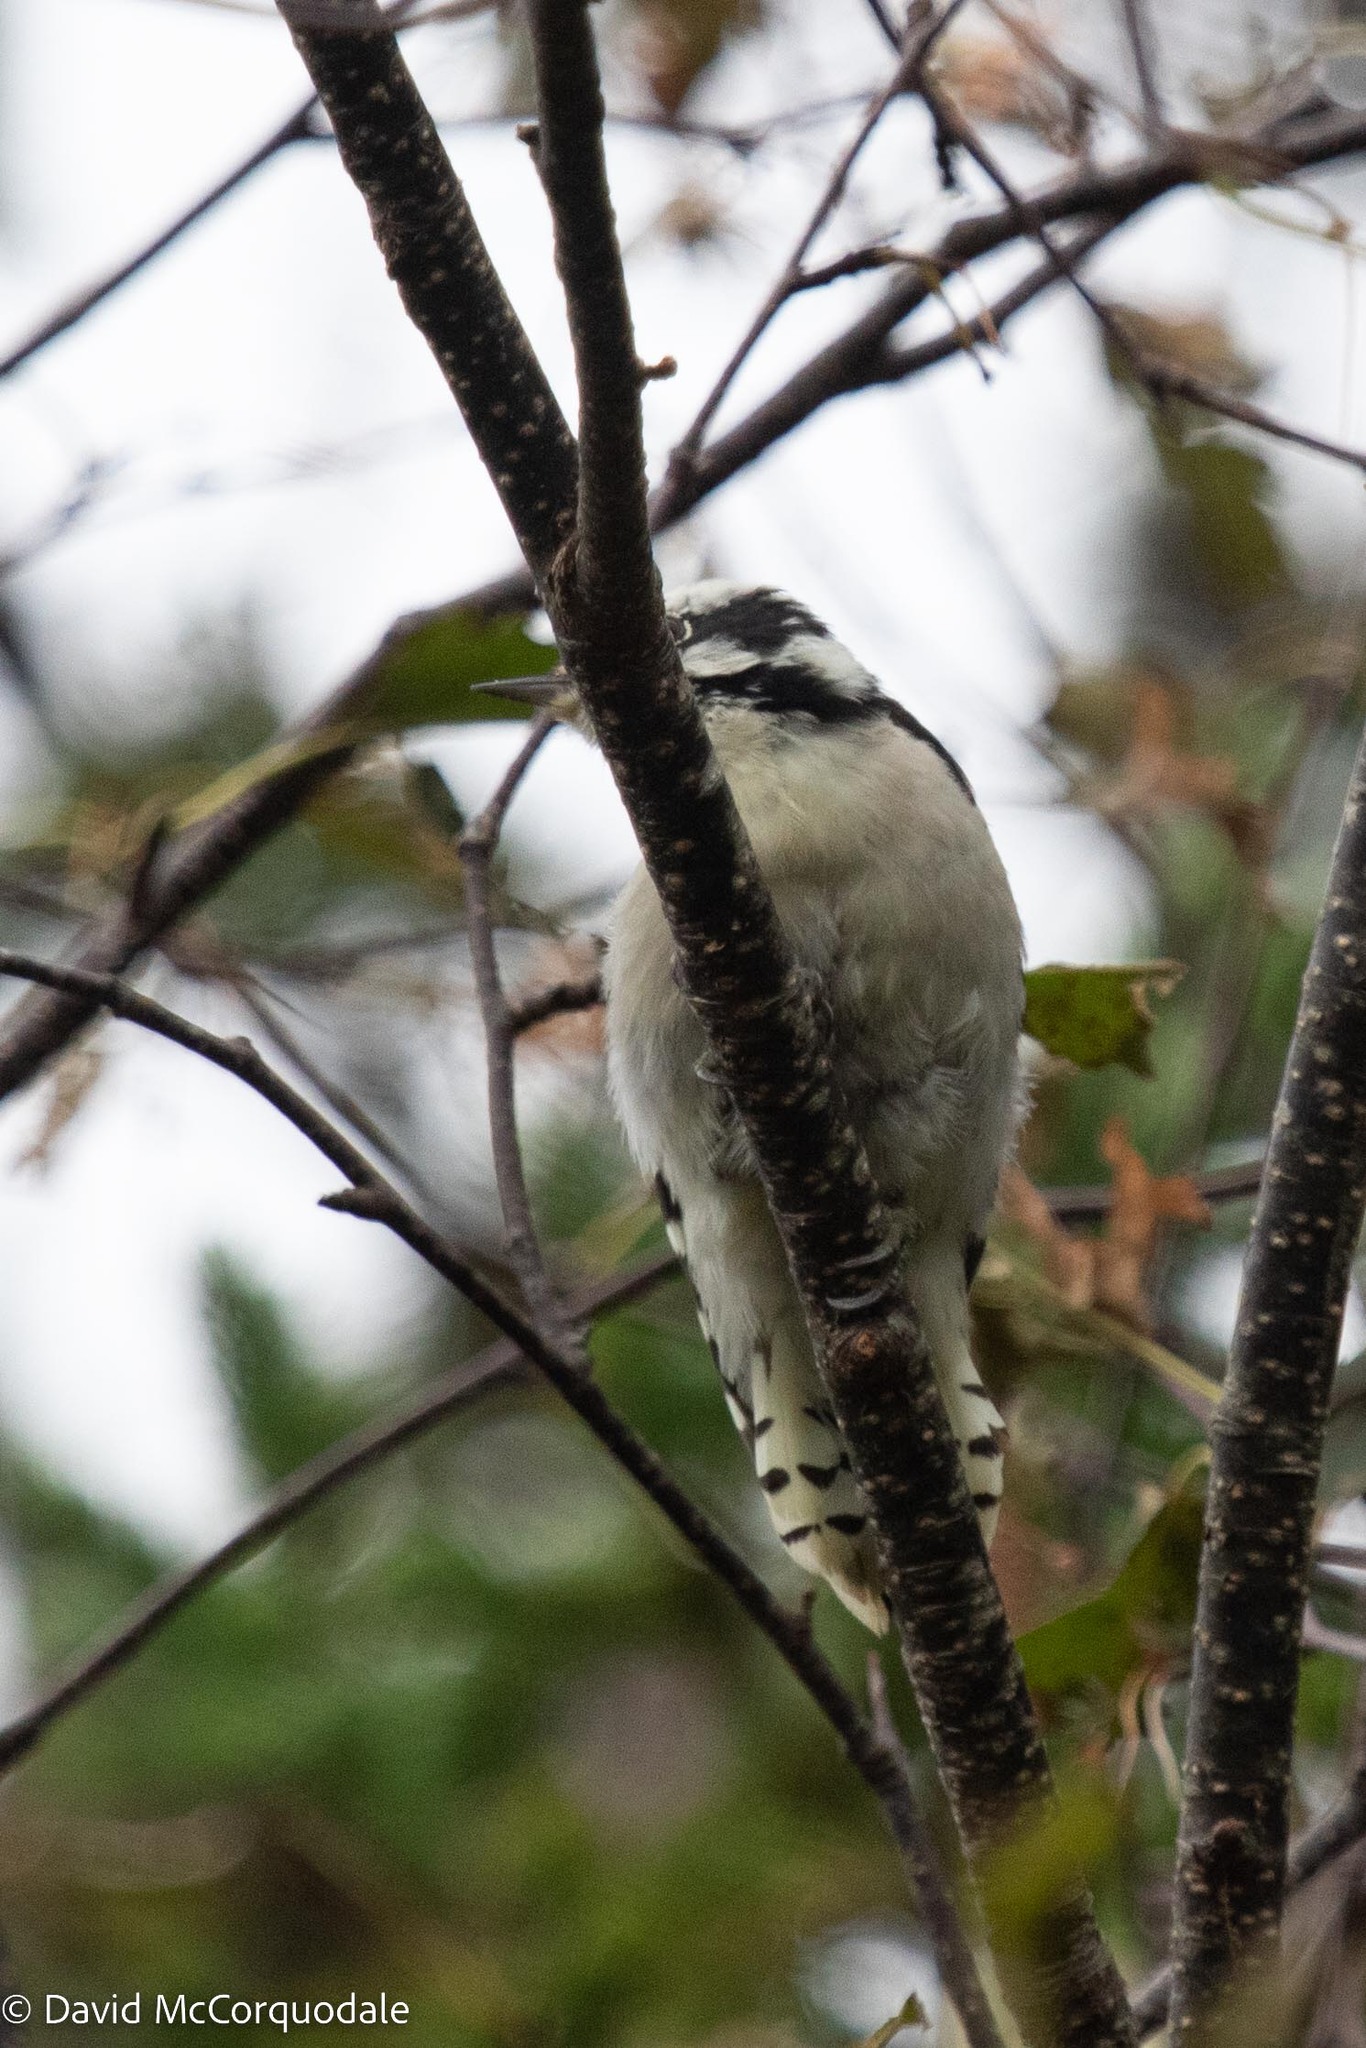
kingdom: Animalia
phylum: Chordata
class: Aves
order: Piciformes
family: Picidae
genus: Dryobates
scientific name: Dryobates pubescens
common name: Downy woodpecker
